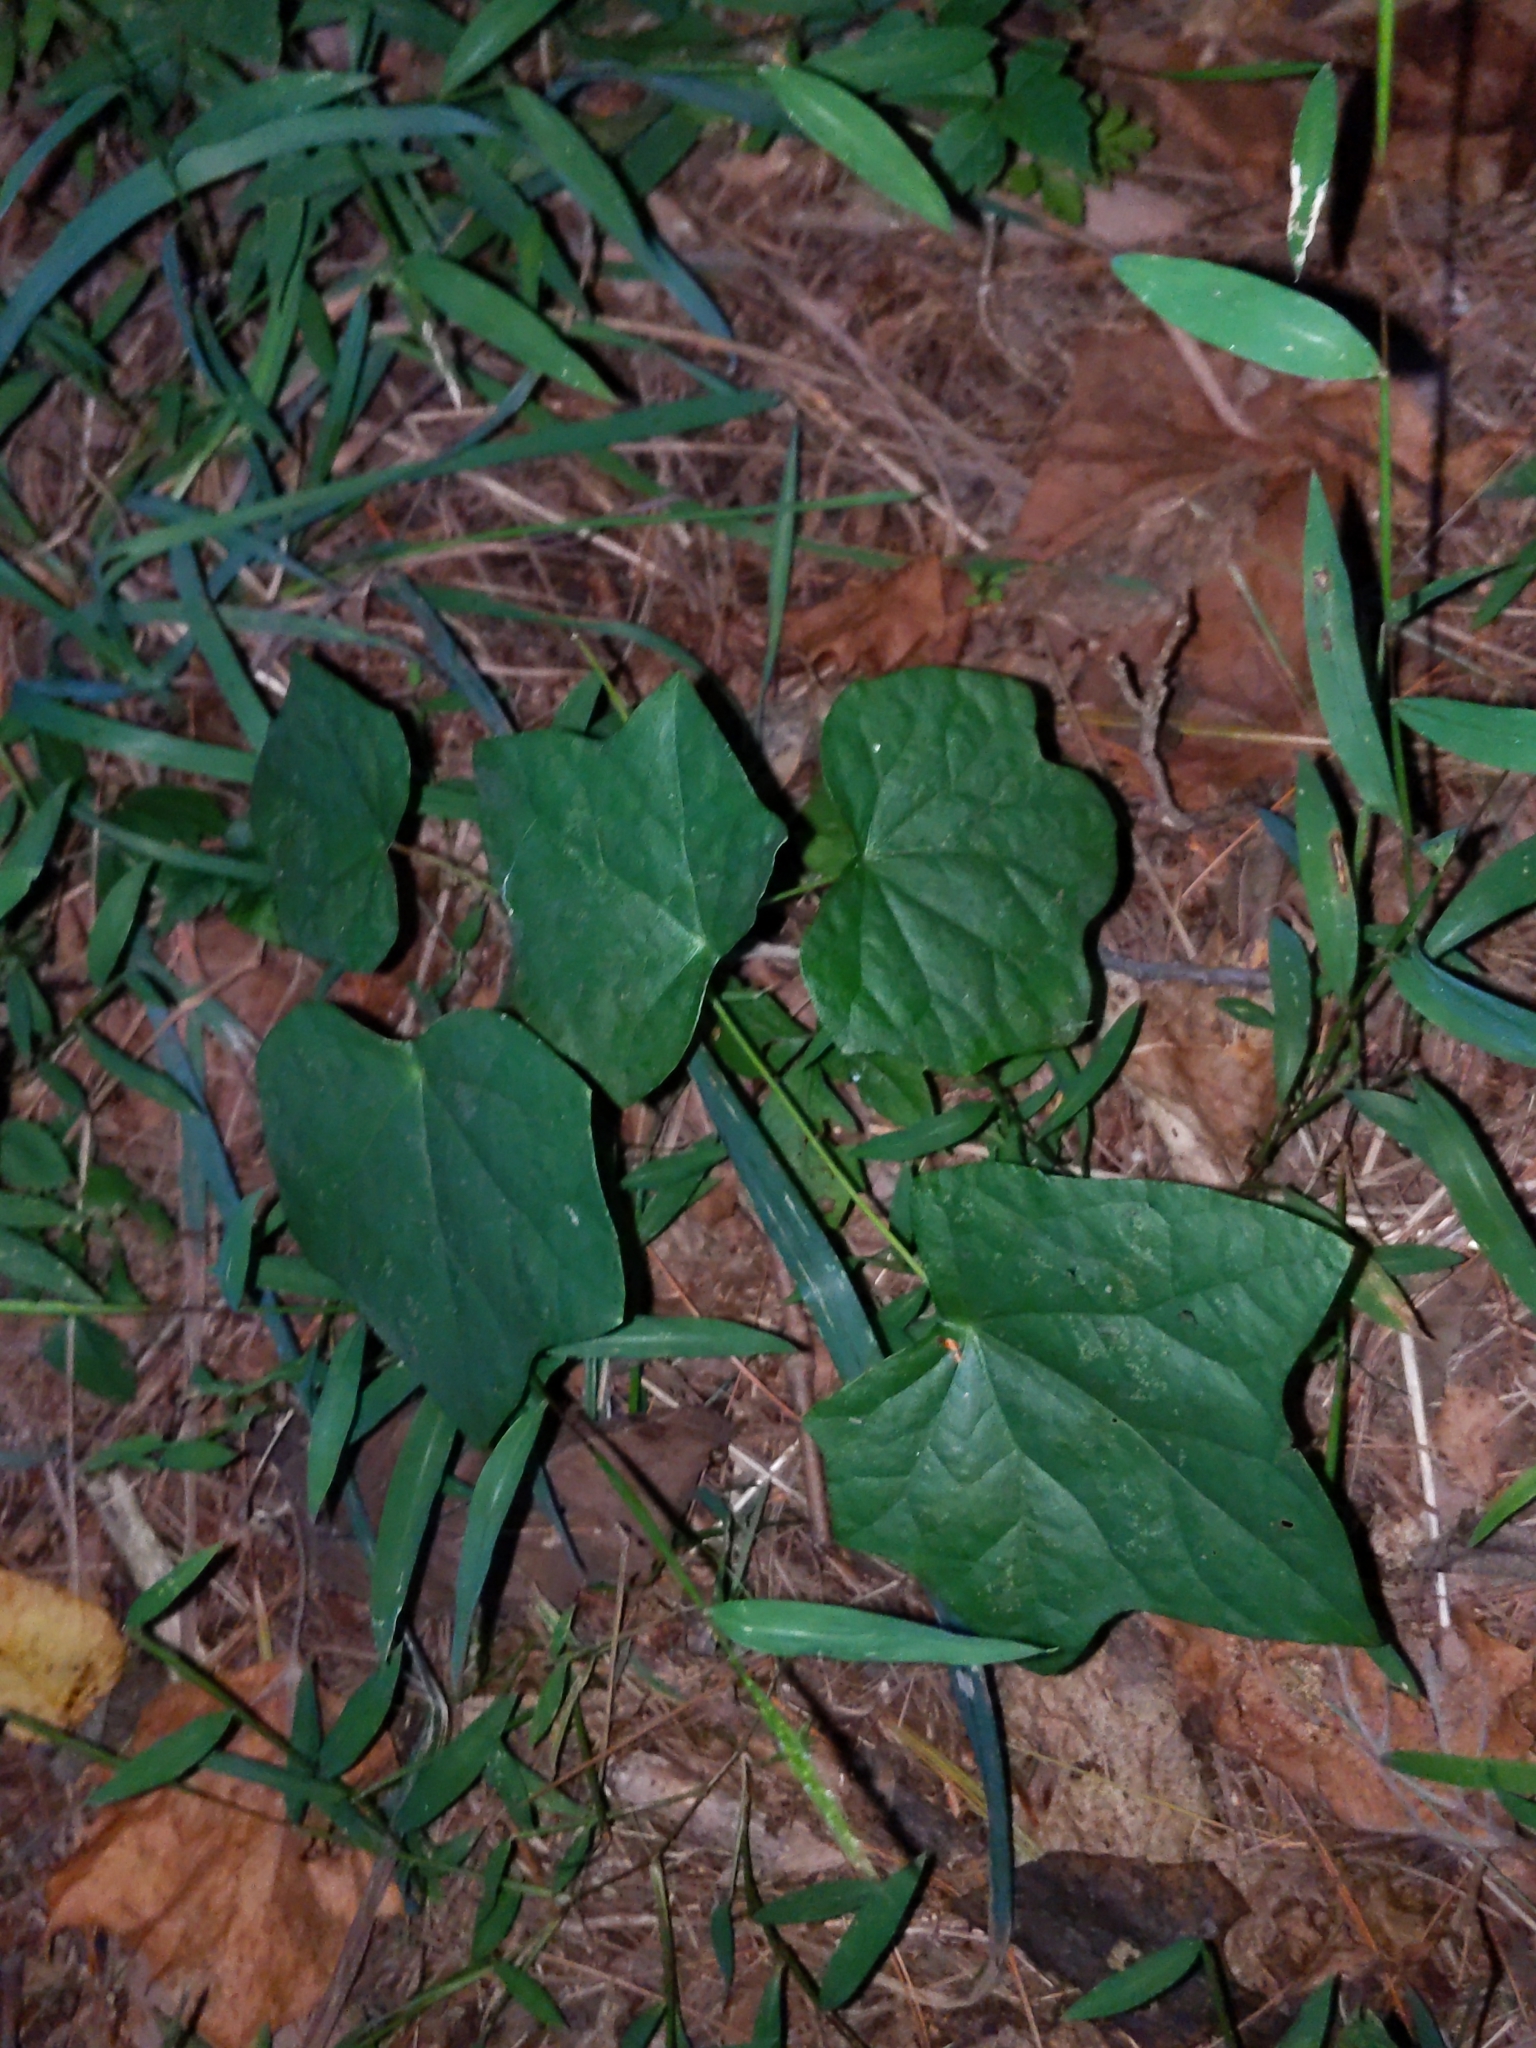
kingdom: Plantae
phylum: Tracheophyta
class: Magnoliopsida
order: Ranunculales
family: Menispermaceae
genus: Menispermum
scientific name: Menispermum canadense
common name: Moonseed
